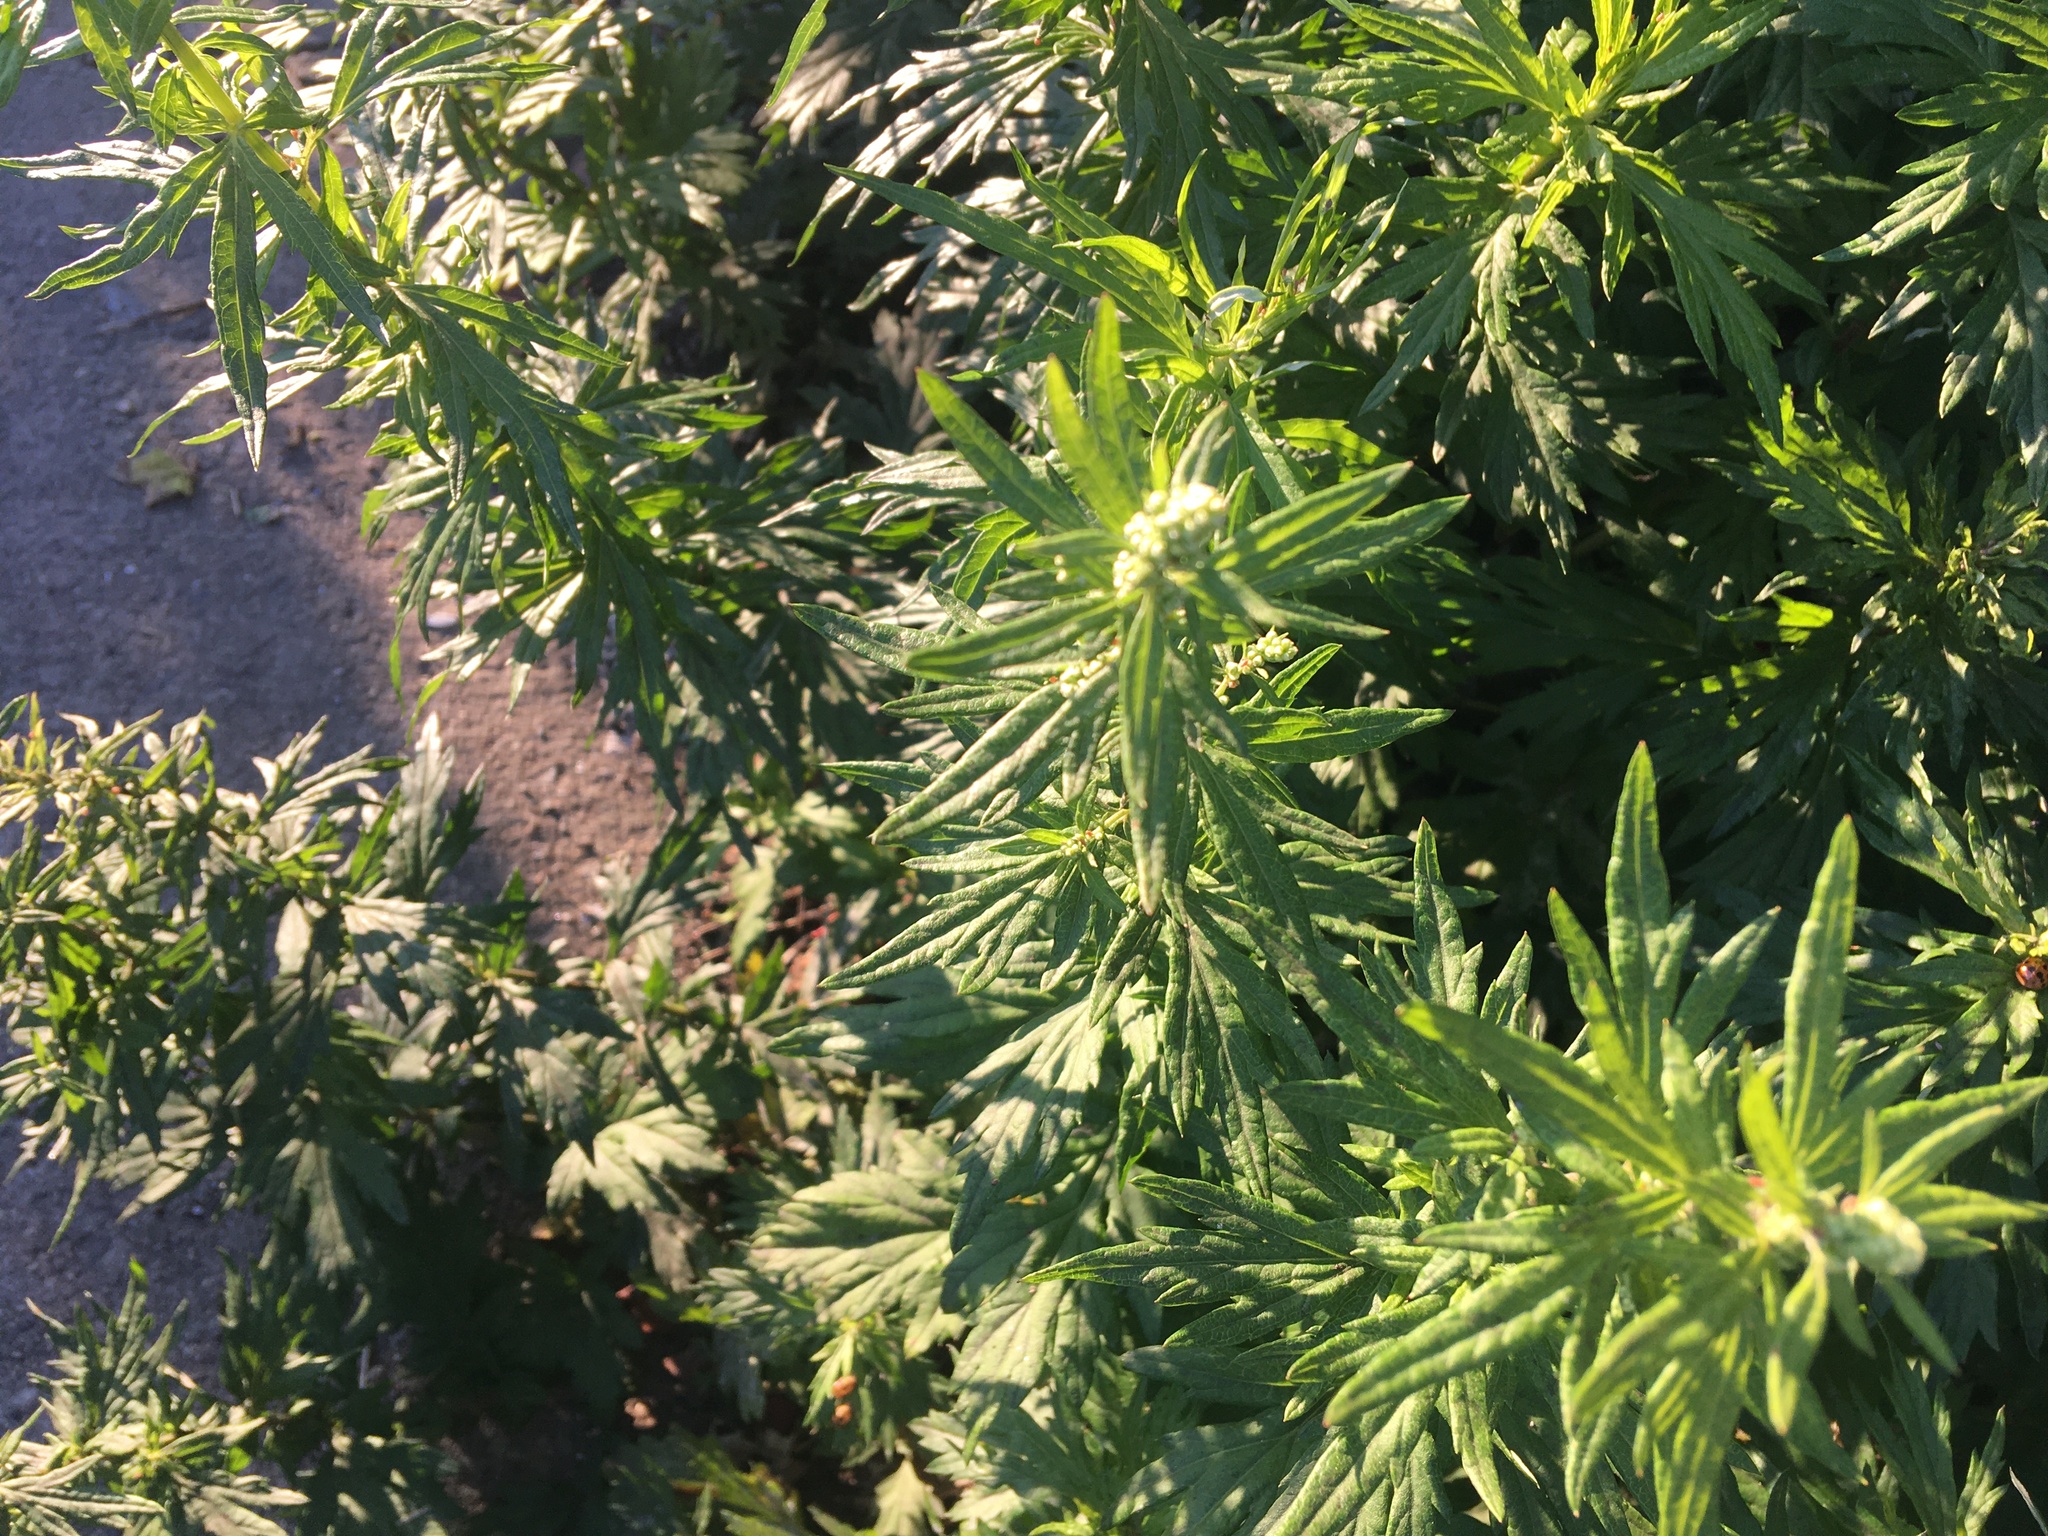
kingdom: Plantae
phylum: Tracheophyta
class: Magnoliopsida
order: Asterales
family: Asteraceae
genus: Artemisia
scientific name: Artemisia vulgaris
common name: Mugwort
